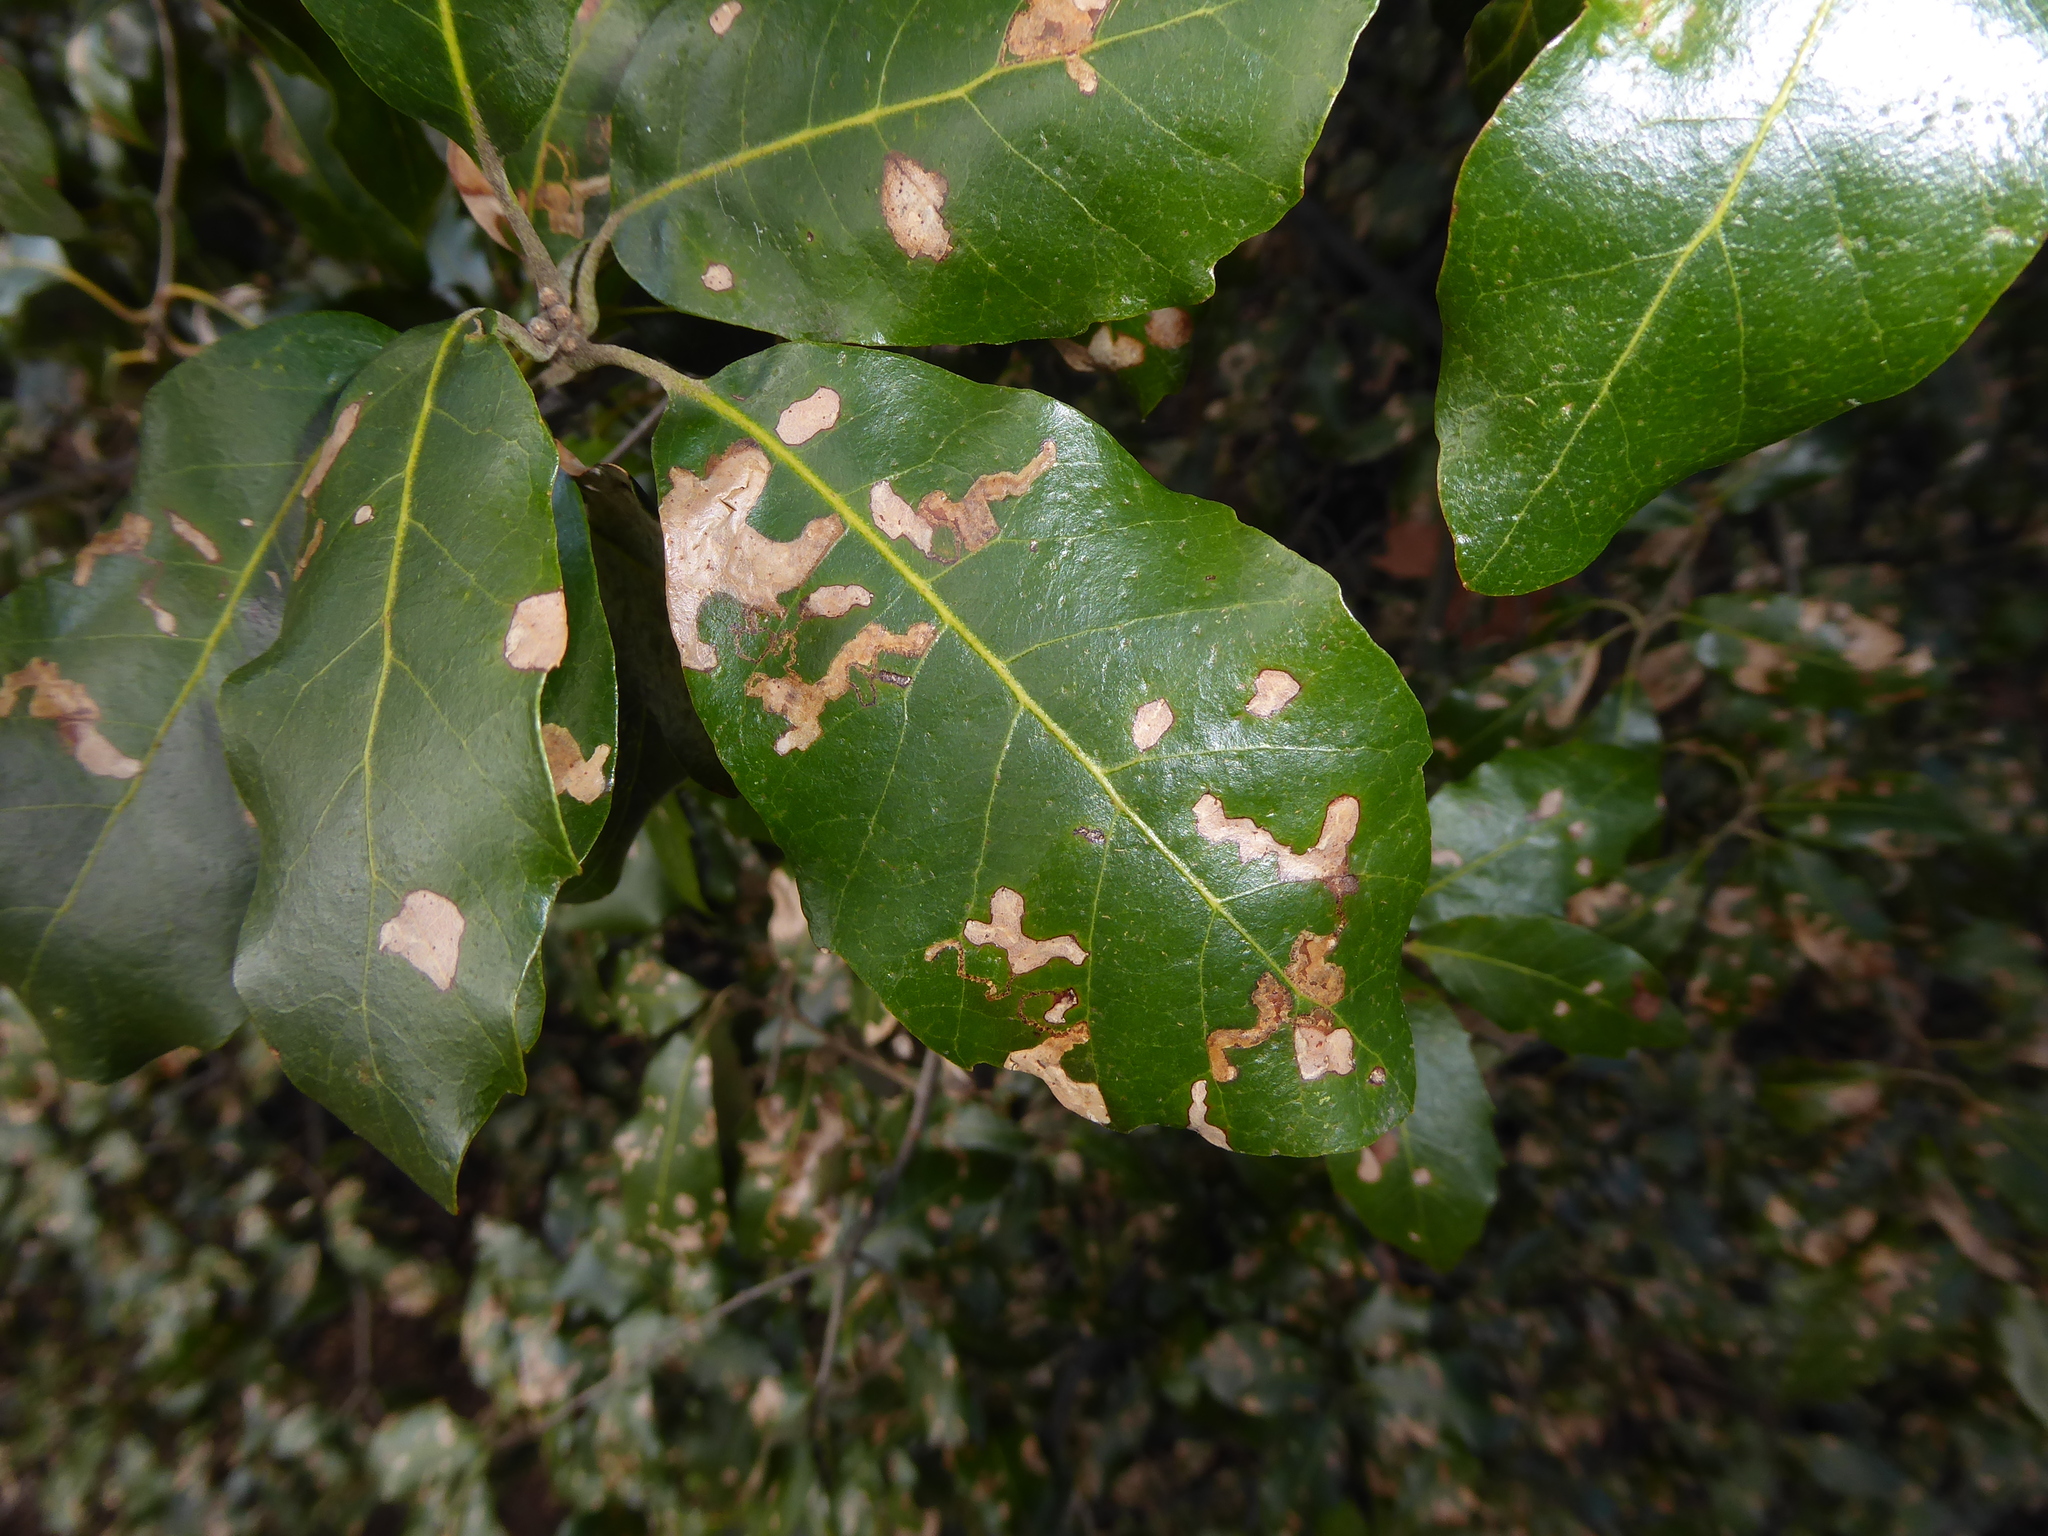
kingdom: Animalia
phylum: Arthropoda
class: Insecta
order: Lepidoptera
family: Nepticulidae
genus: Ectoedemia
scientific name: Ectoedemia heringella
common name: New holm-oak pigmy
